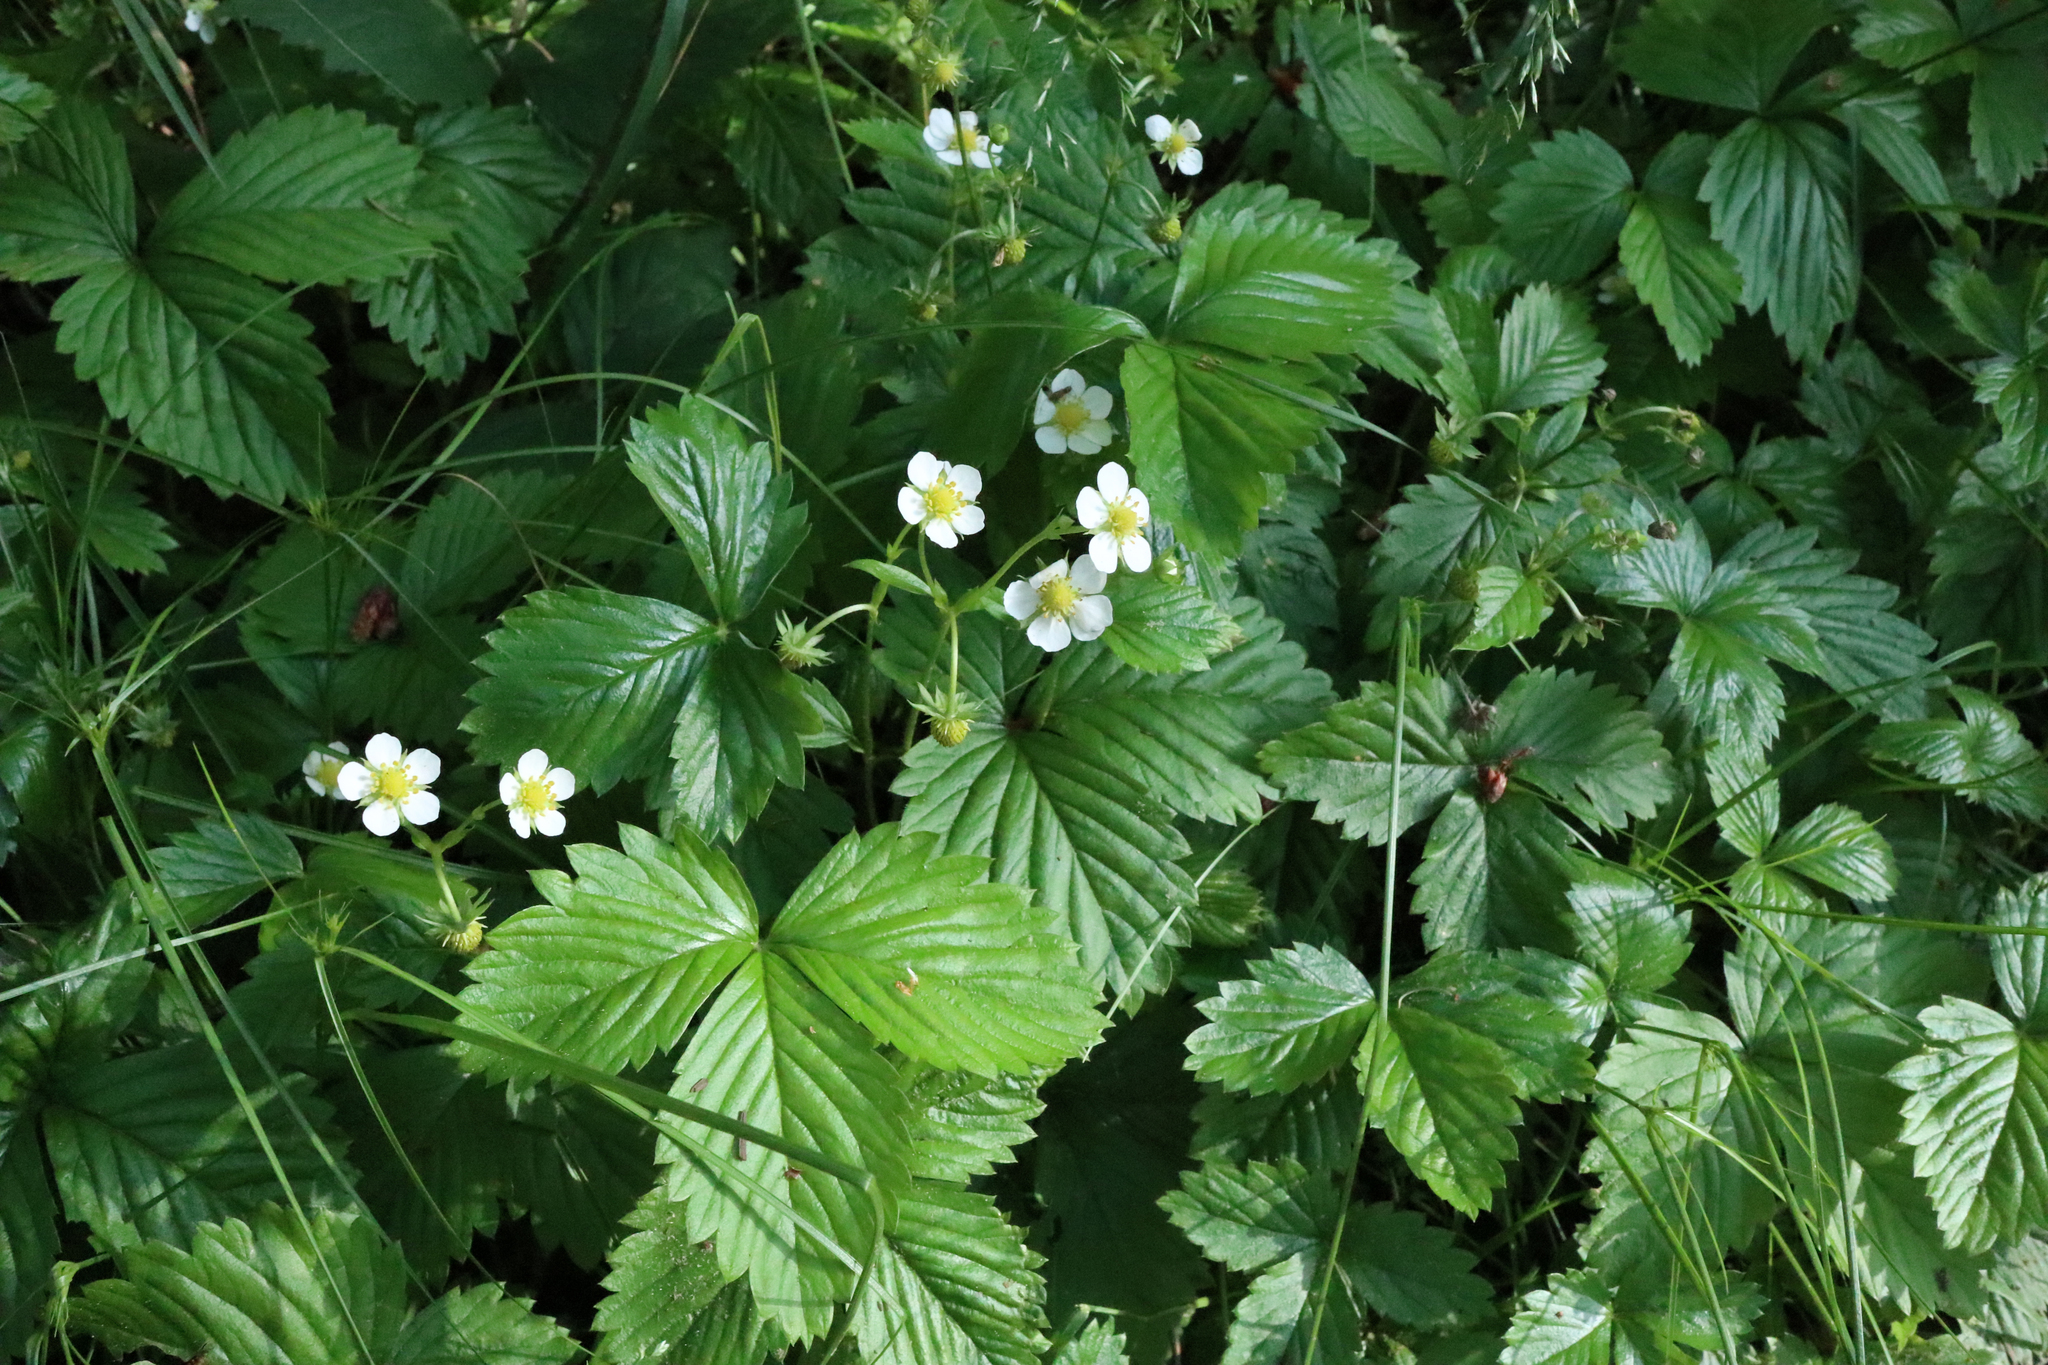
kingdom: Plantae
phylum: Tracheophyta
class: Magnoliopsida
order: Rosales
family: Rosaceae
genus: Fragaria
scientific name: Fragaria vesca
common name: Wild strawberry
